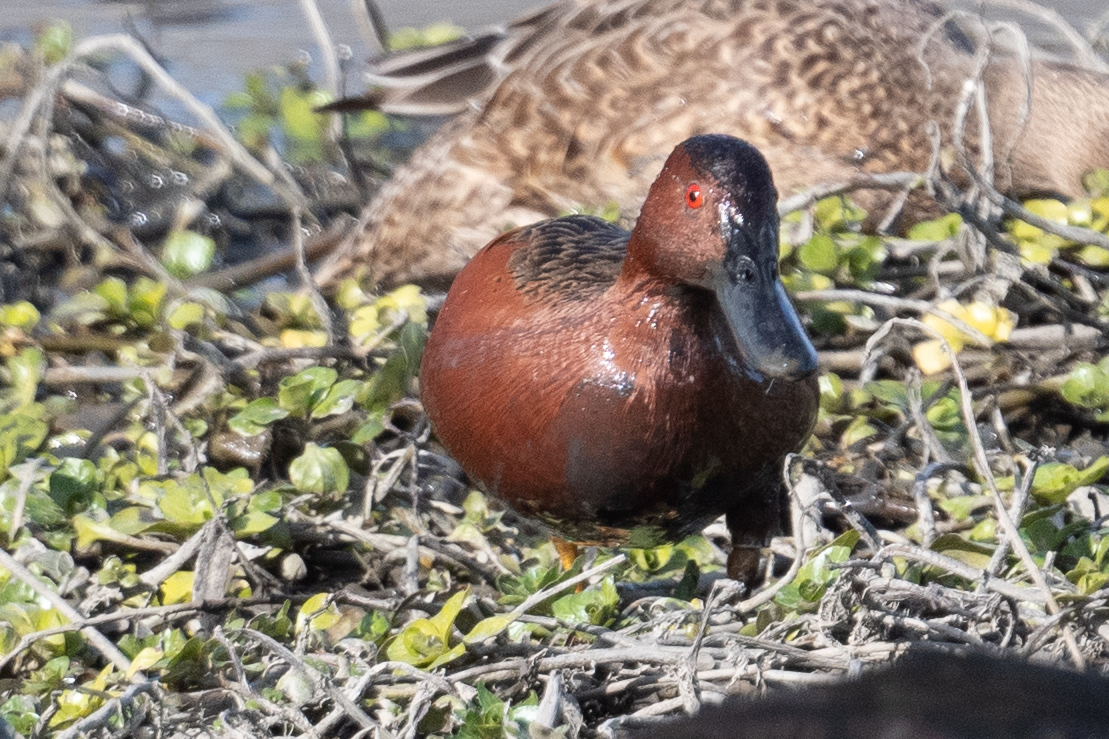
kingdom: Animalia
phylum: Chordata
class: Aves
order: Anseriformes
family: Anatidae
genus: Spatula
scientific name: Spatula cyanoptera
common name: Cinnamon teal
